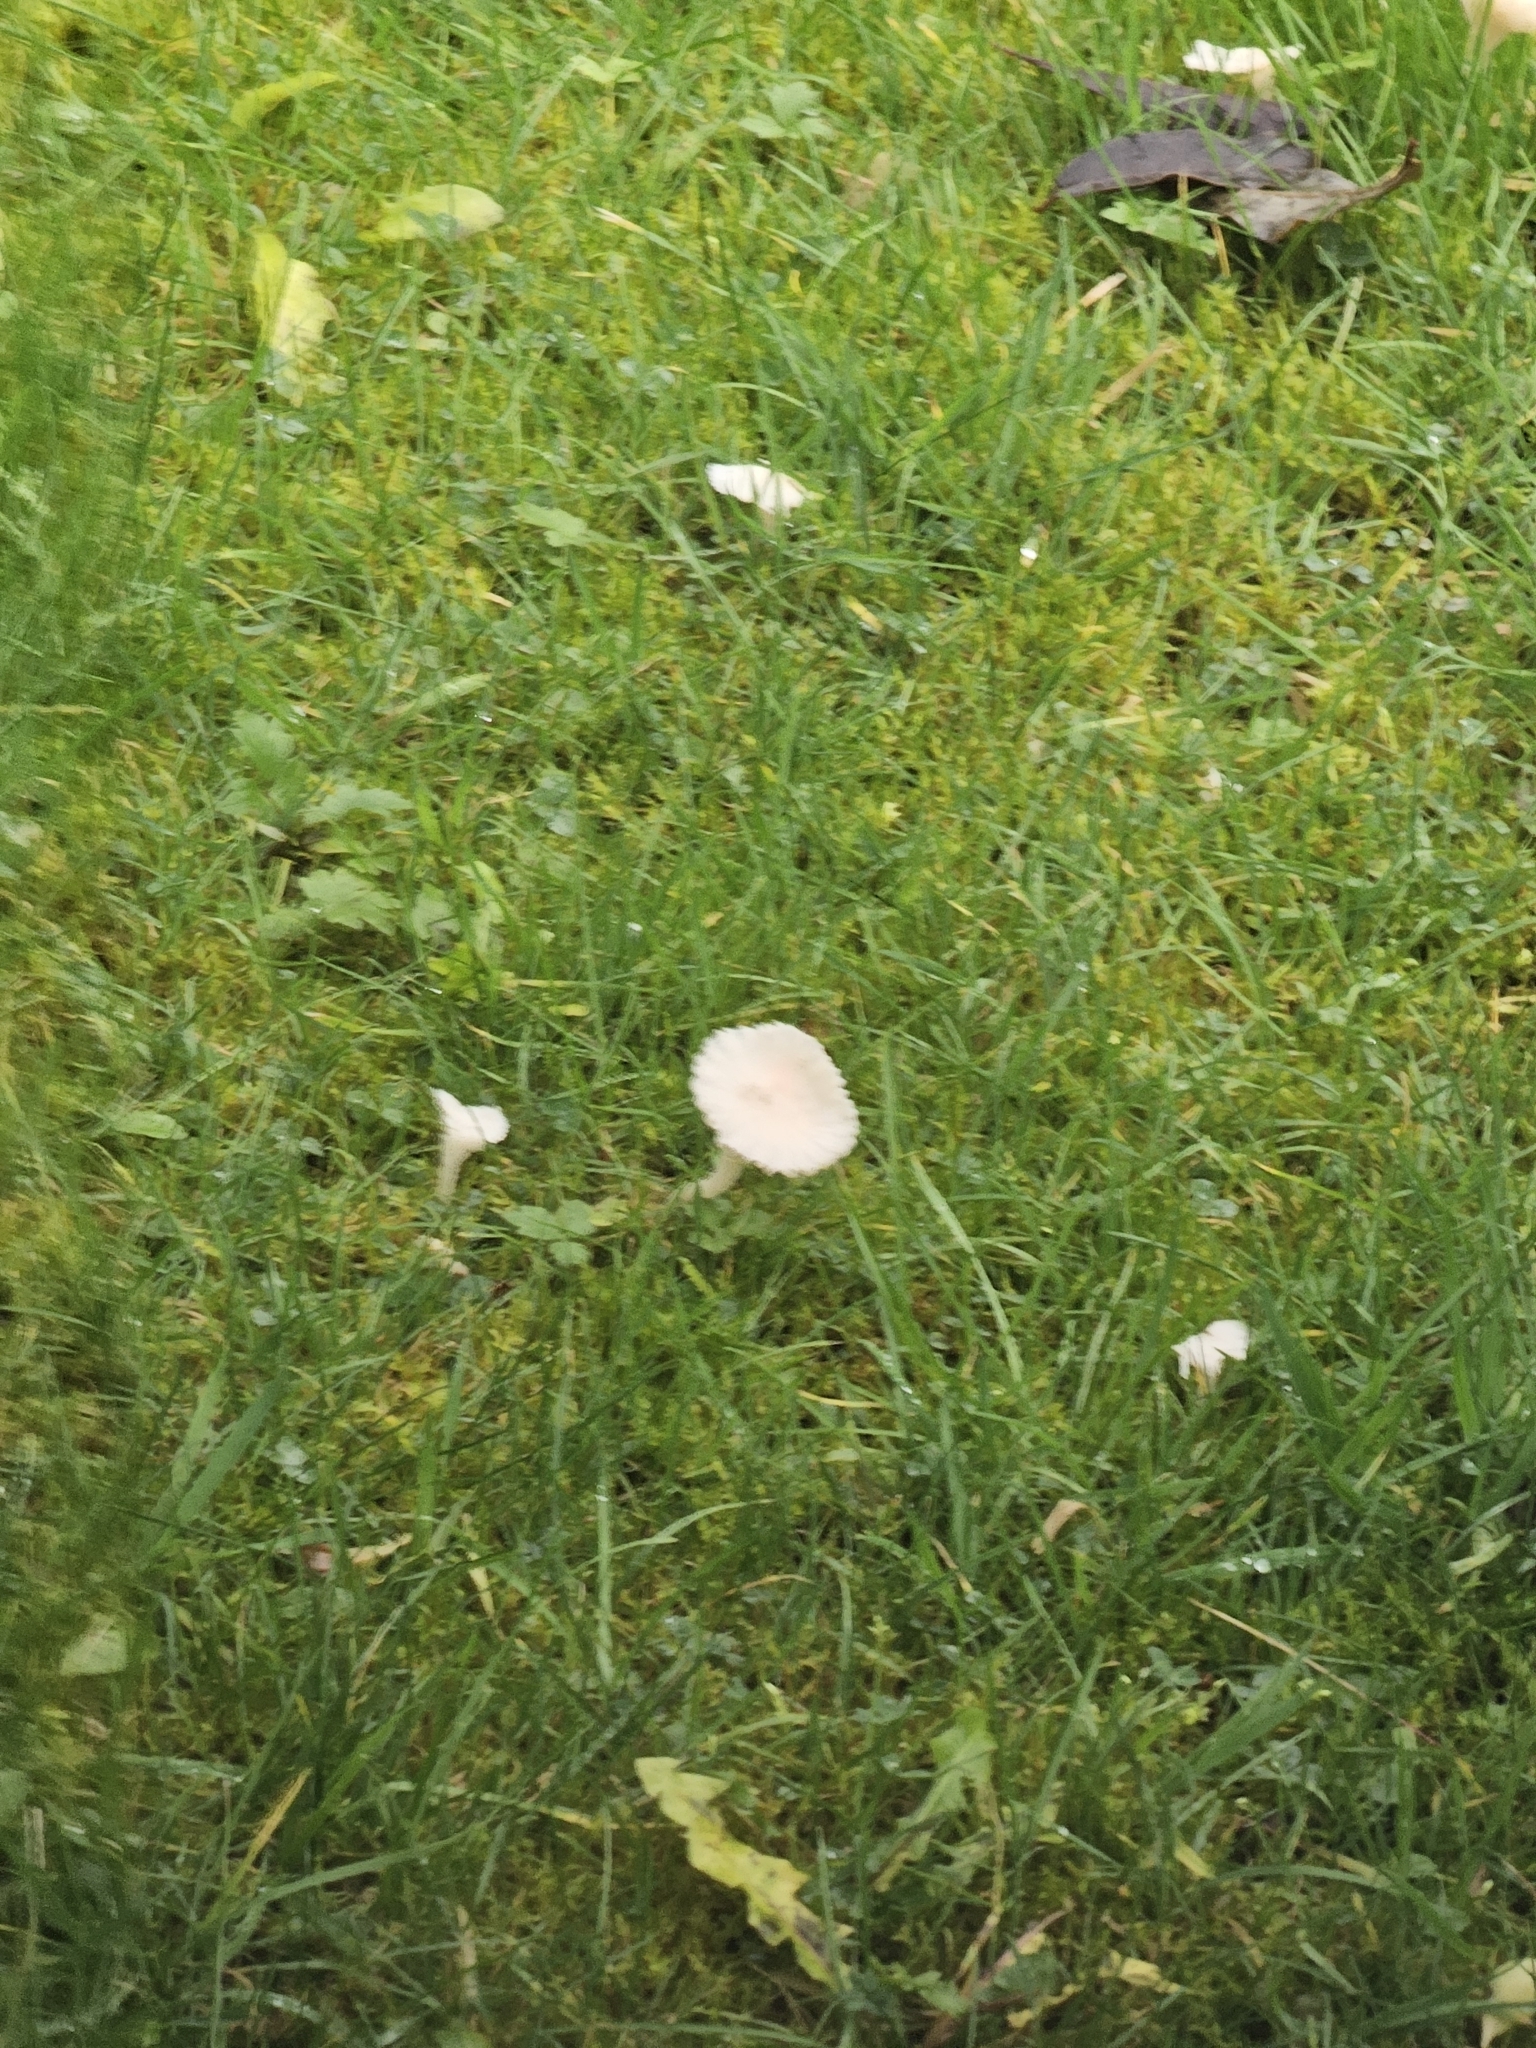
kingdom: Fungi
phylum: Basidiomycota
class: Agaricomycetes
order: Agaricales
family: Hygrophoraceae
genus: Cuphophyllus
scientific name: Cuphophyllus virgineus
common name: Snowy waxcap
